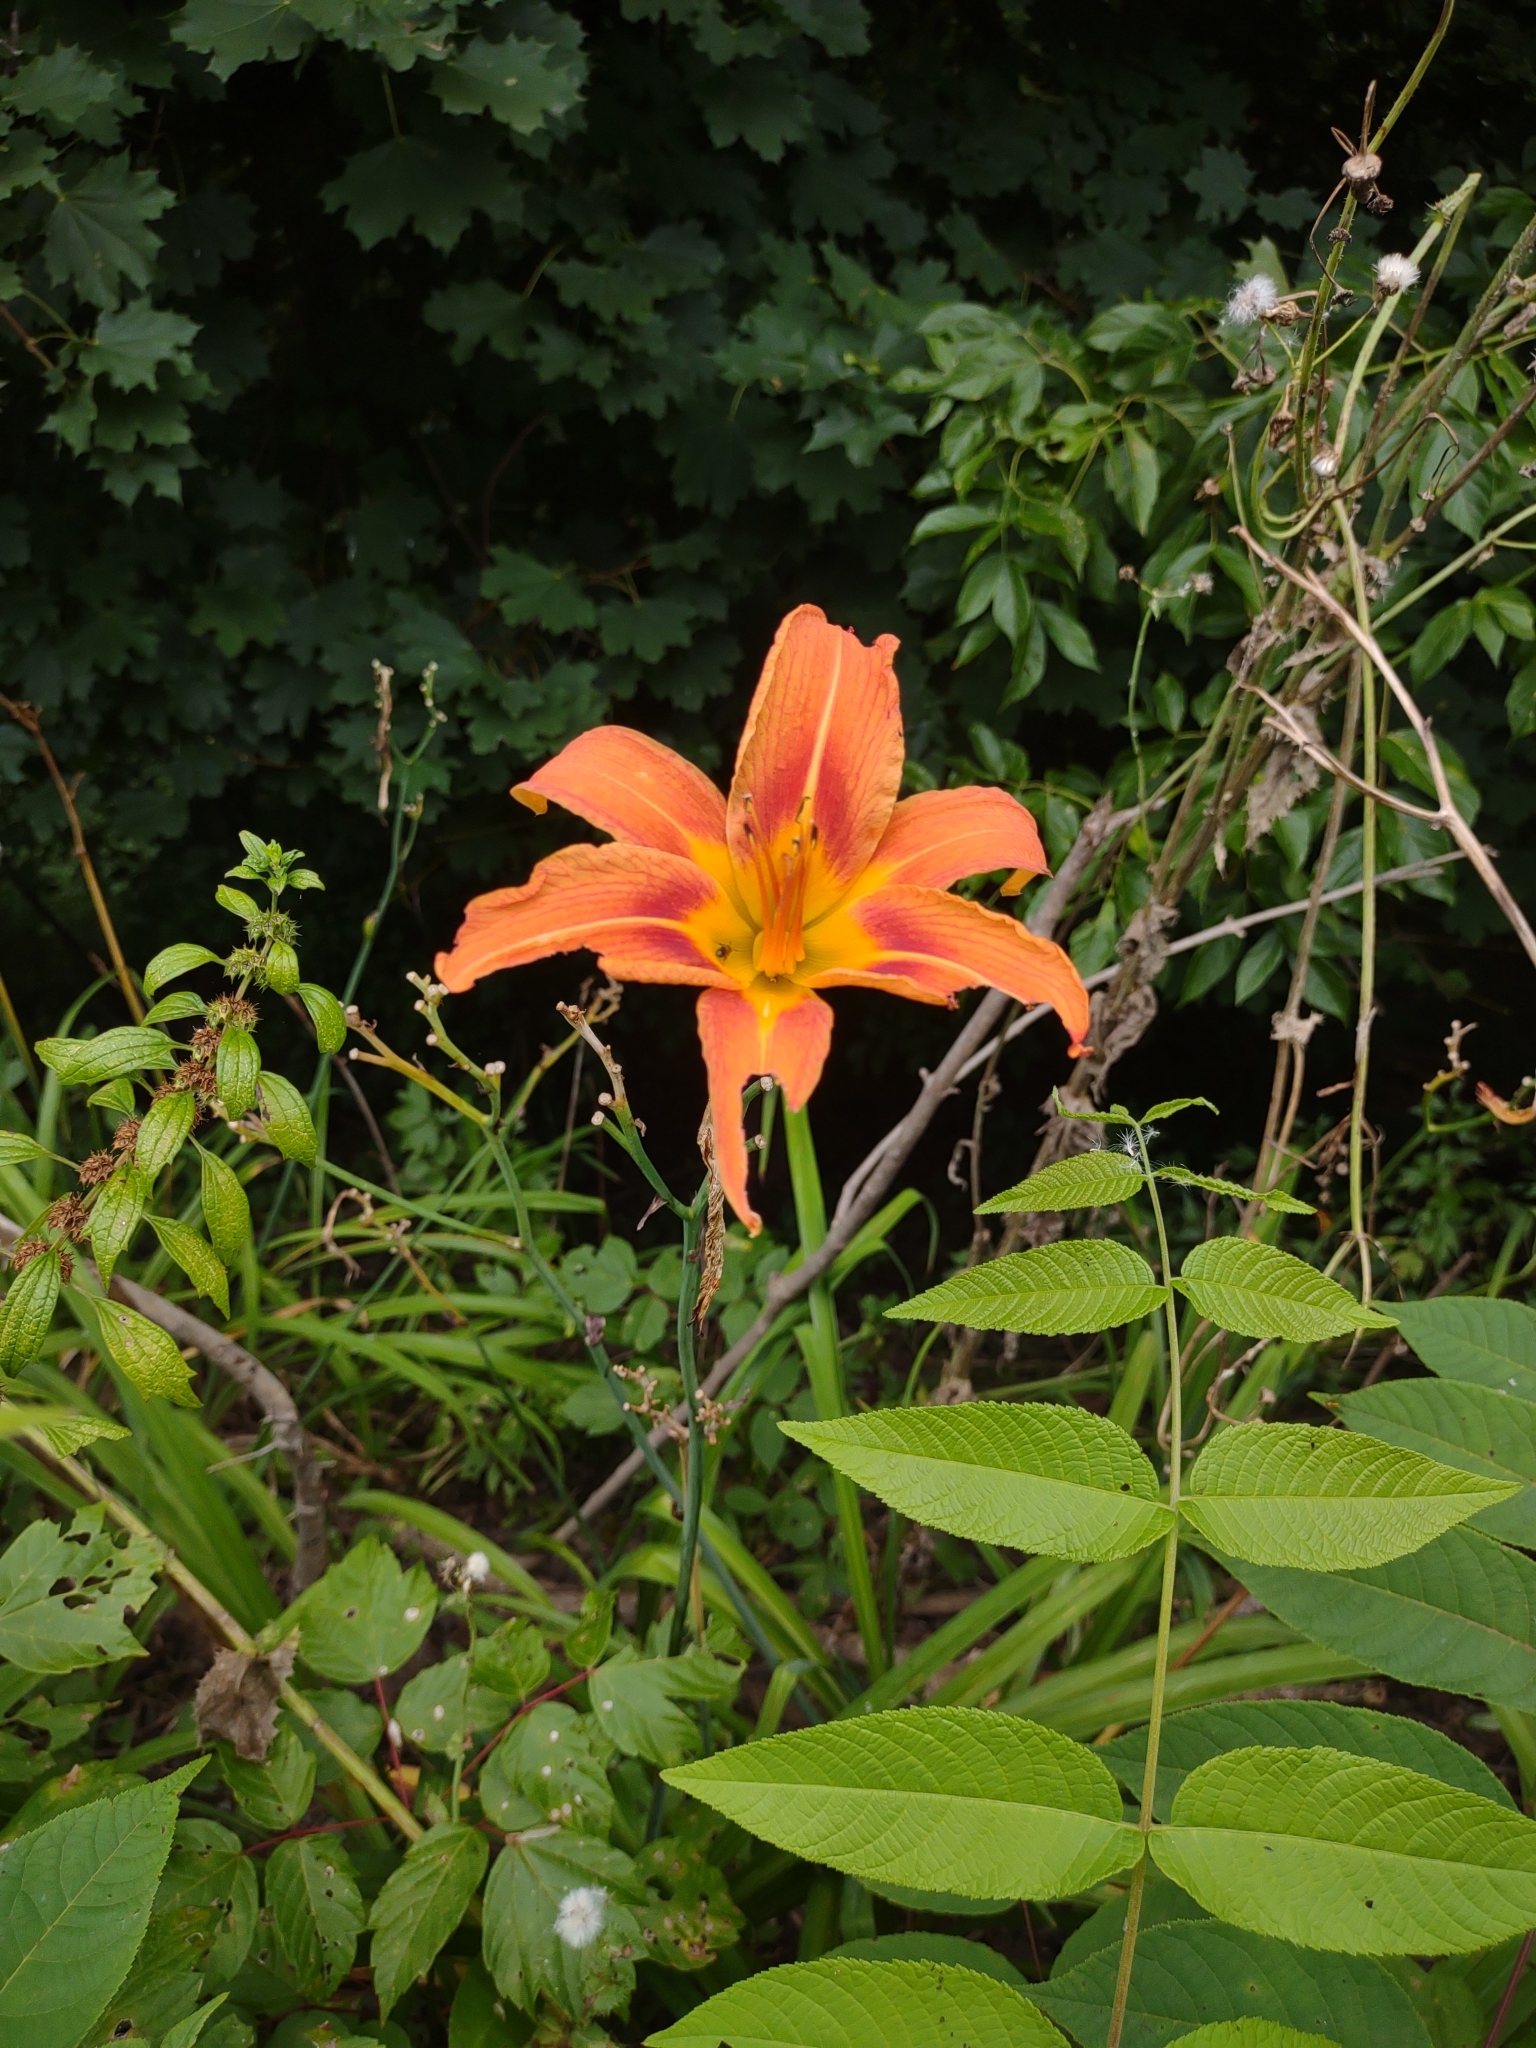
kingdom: Plantae
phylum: Tracheophyta
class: Liliopsida
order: Asparagales
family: Asphodelaceae
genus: Hemerocallis
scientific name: Hemerocallis fulva
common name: Orange day-lily
